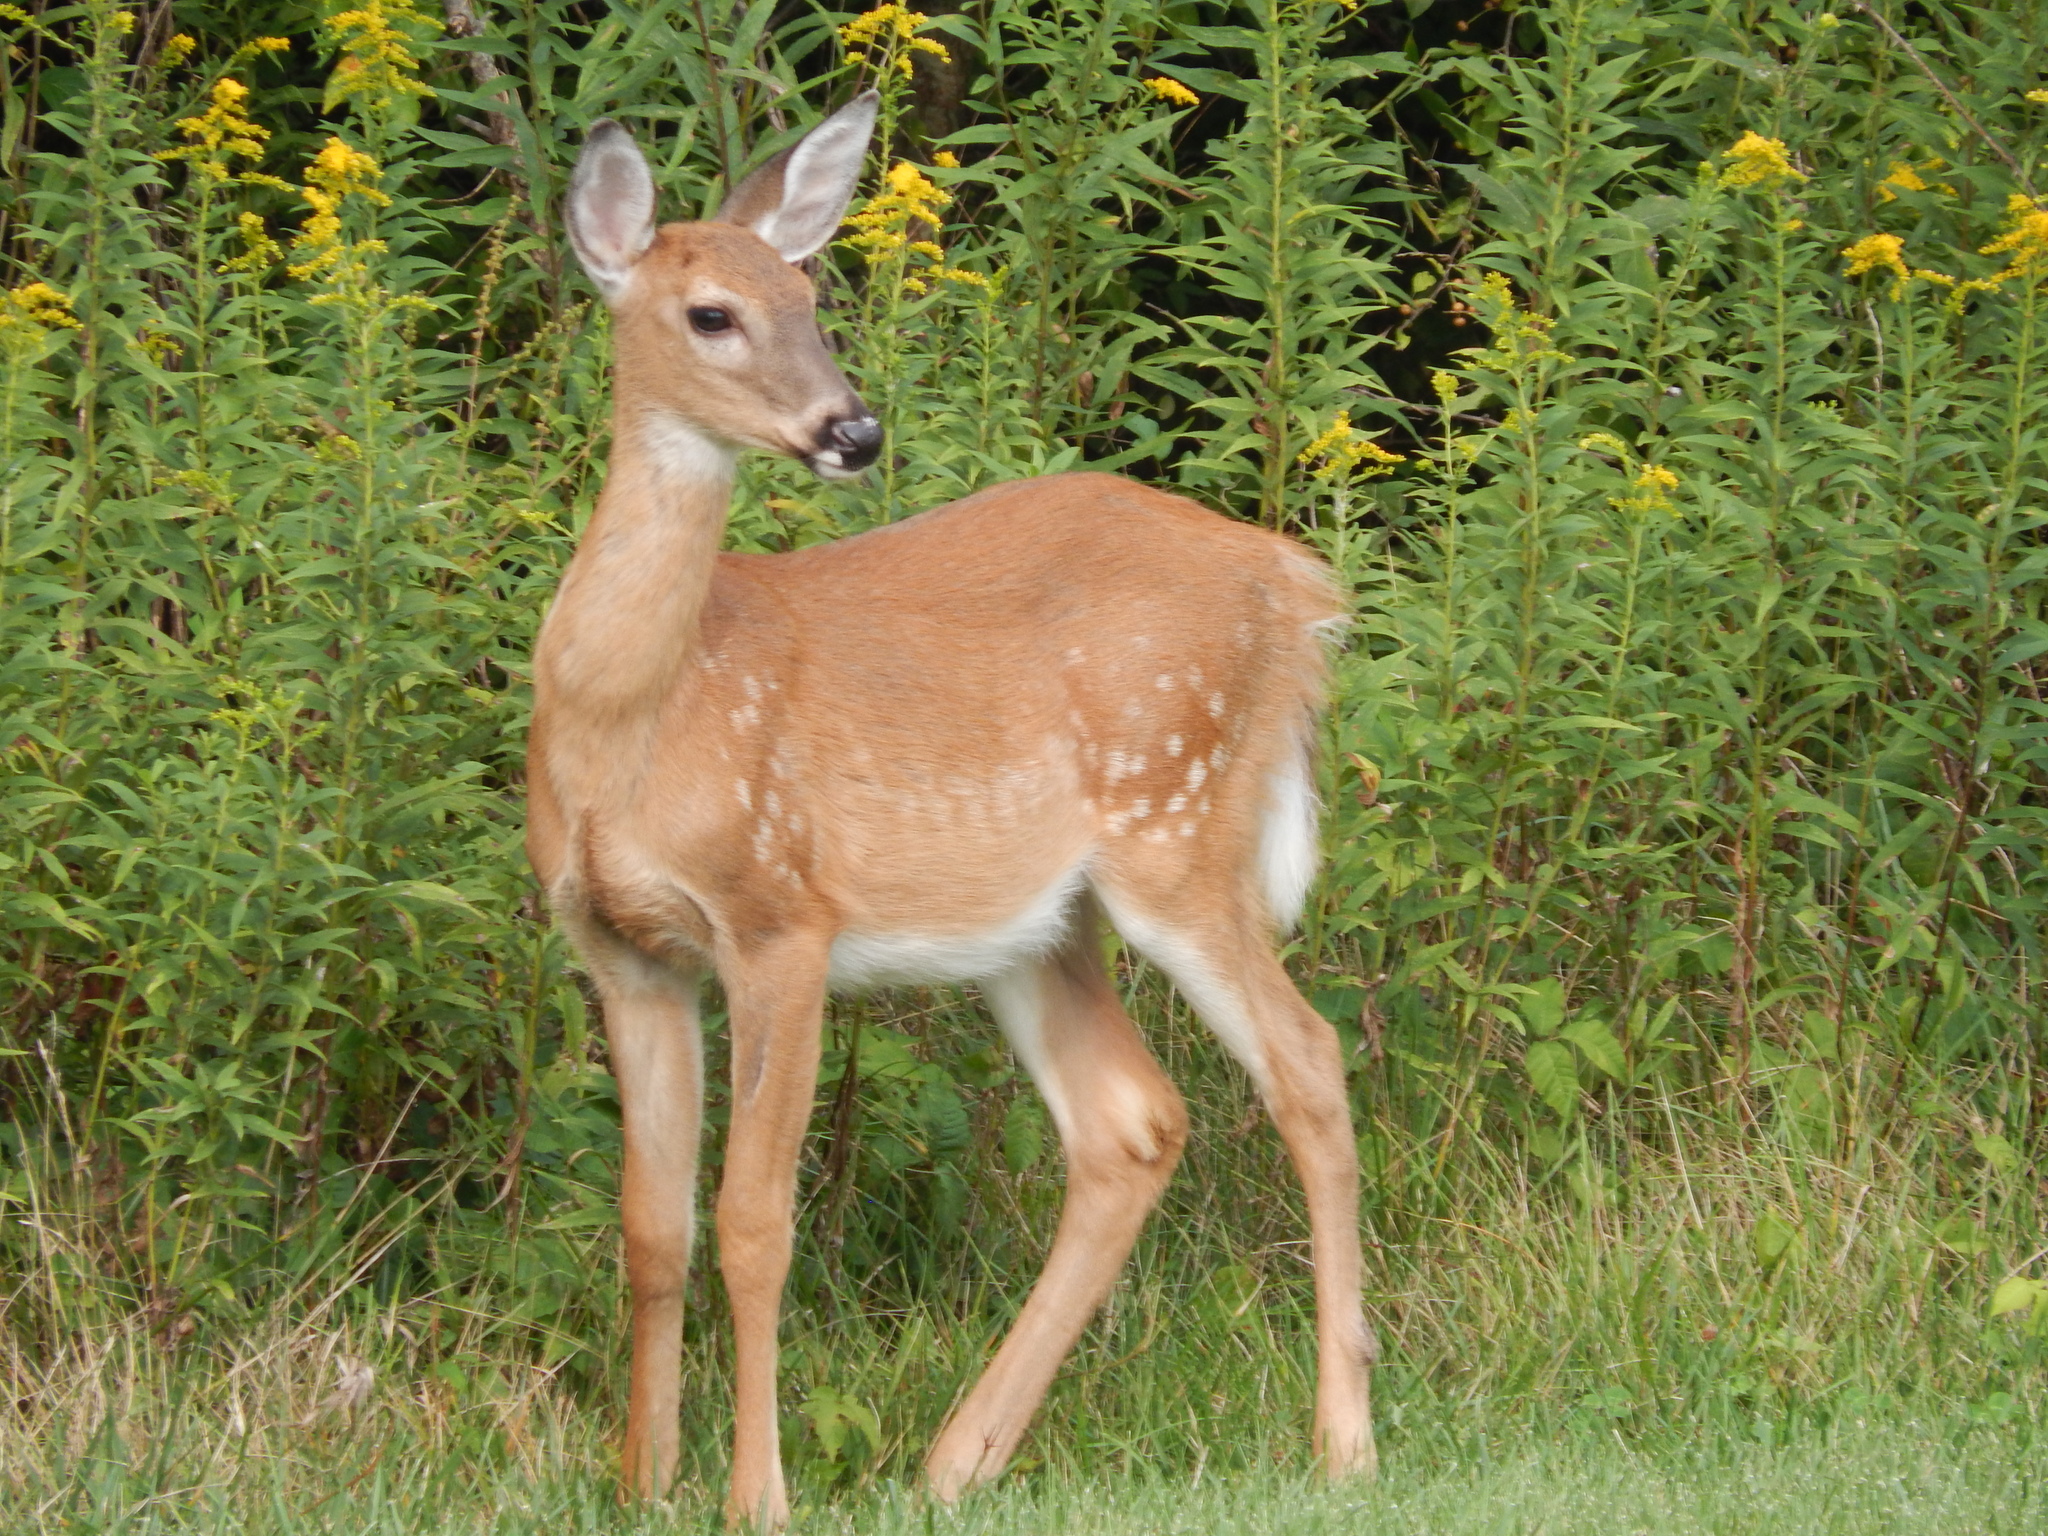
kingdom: Animalia
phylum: Chordata
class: Mammalia
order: Artiodactyla
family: Cervidae
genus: Odocoileus
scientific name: Odocoileus virginianus
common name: White-tailed deer
